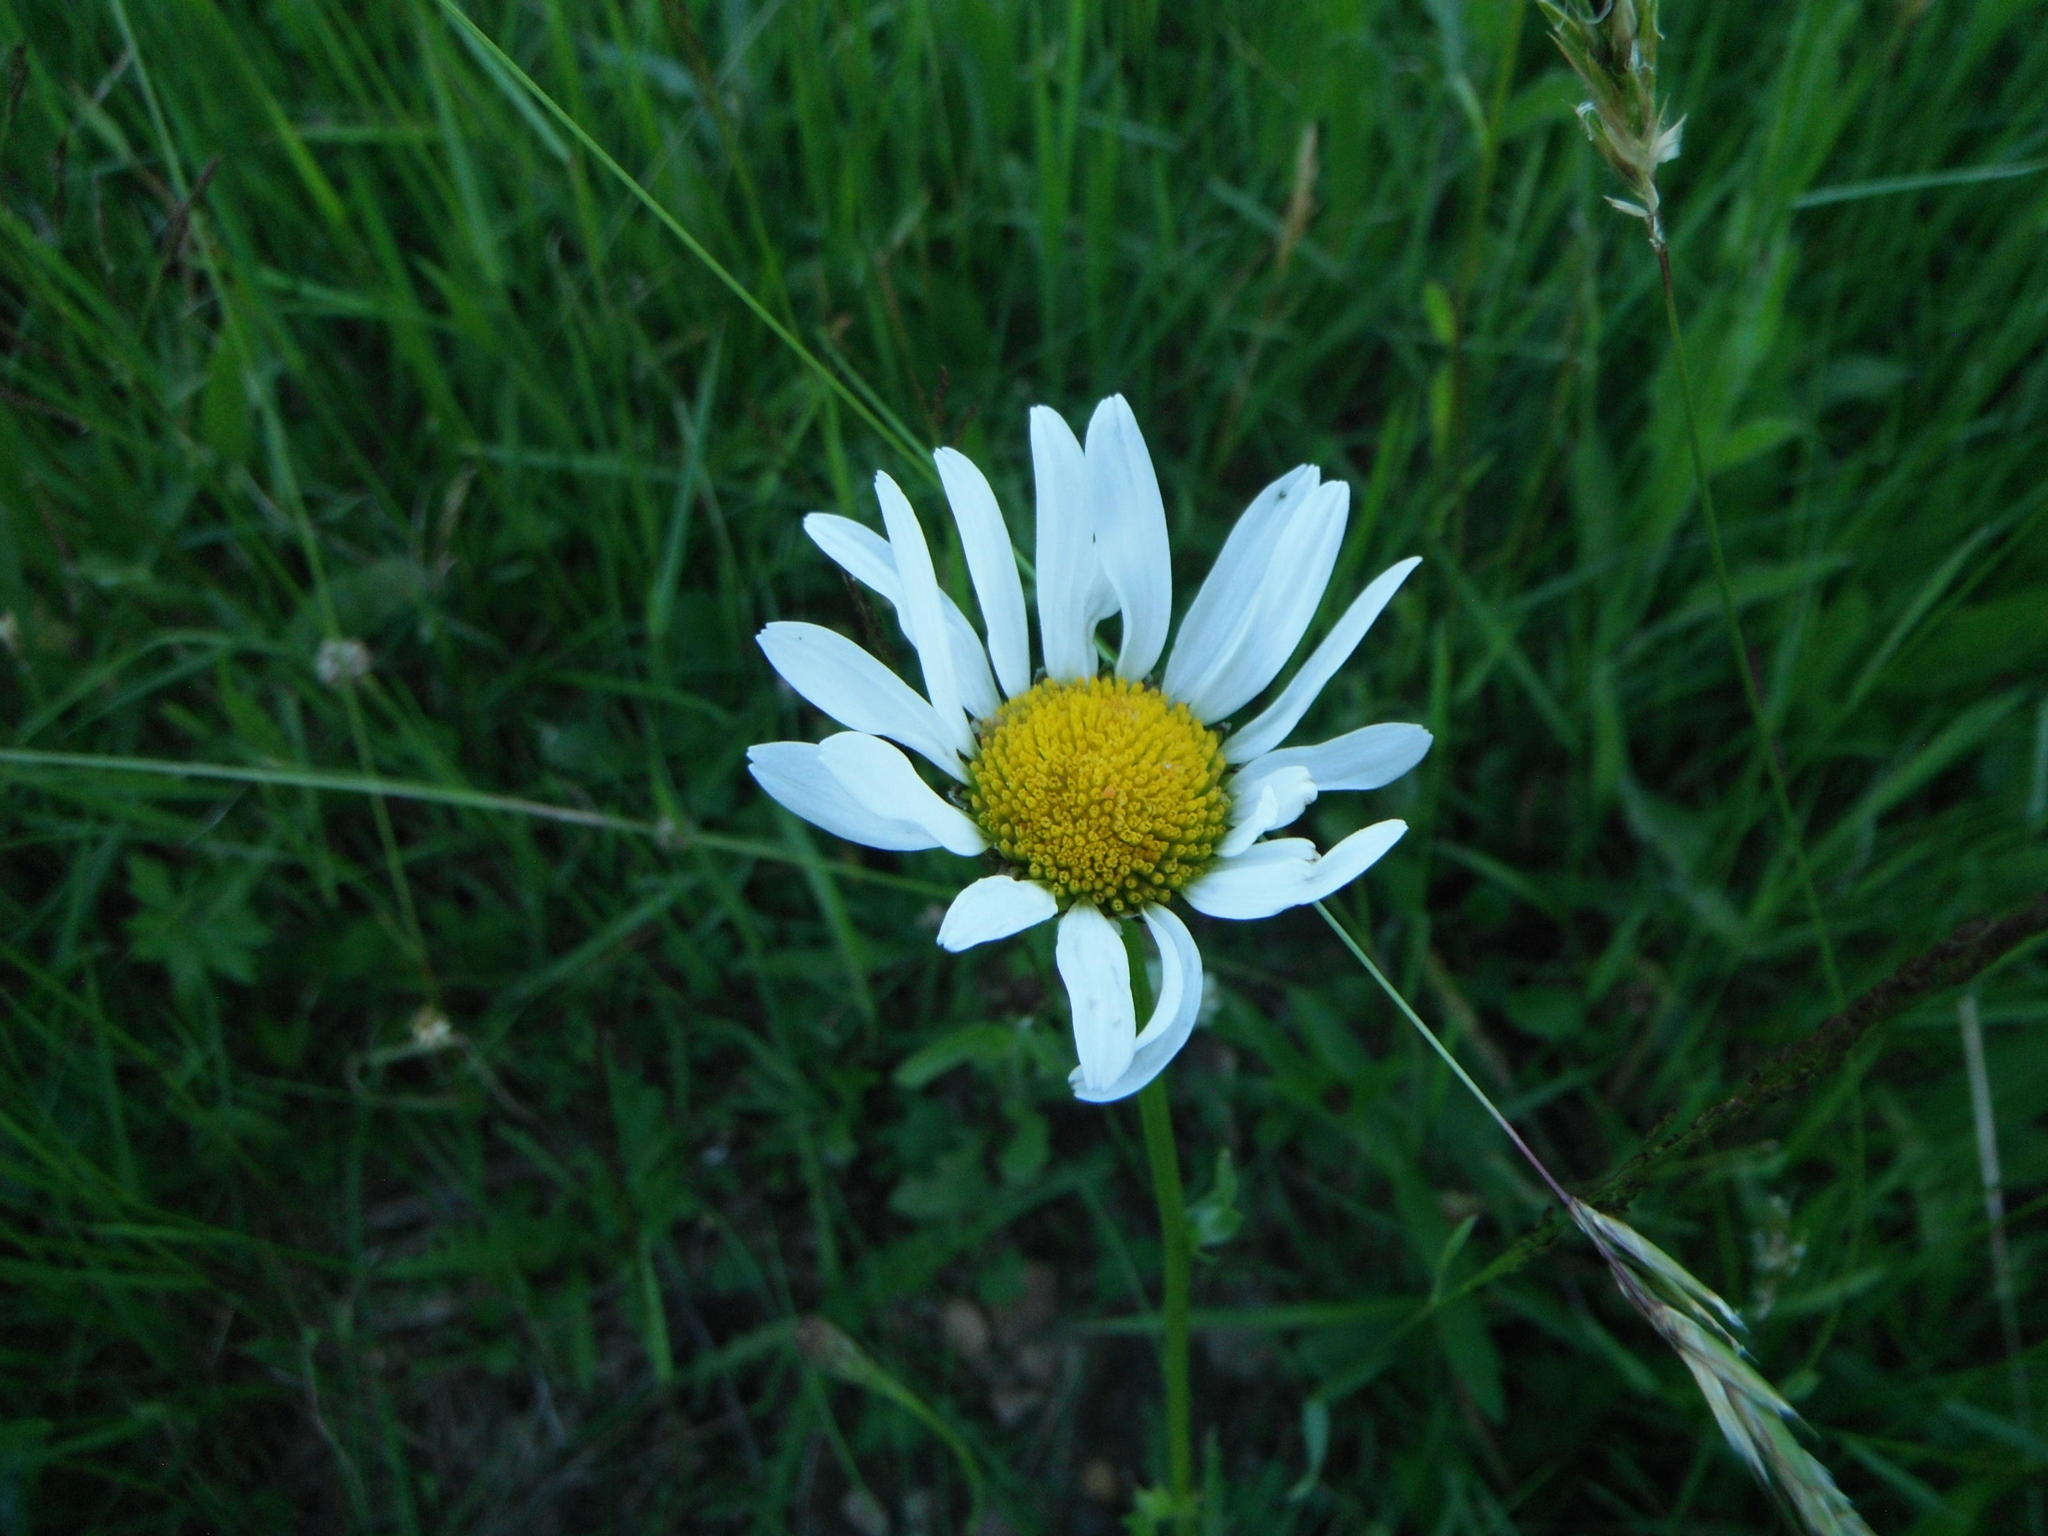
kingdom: Plantae
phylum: Tracheophyta
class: Magnoliopsida
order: Asterales
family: Asteraceae
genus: Leucanthemum
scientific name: Leucanthemum vulgare
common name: Oxeye daisy
